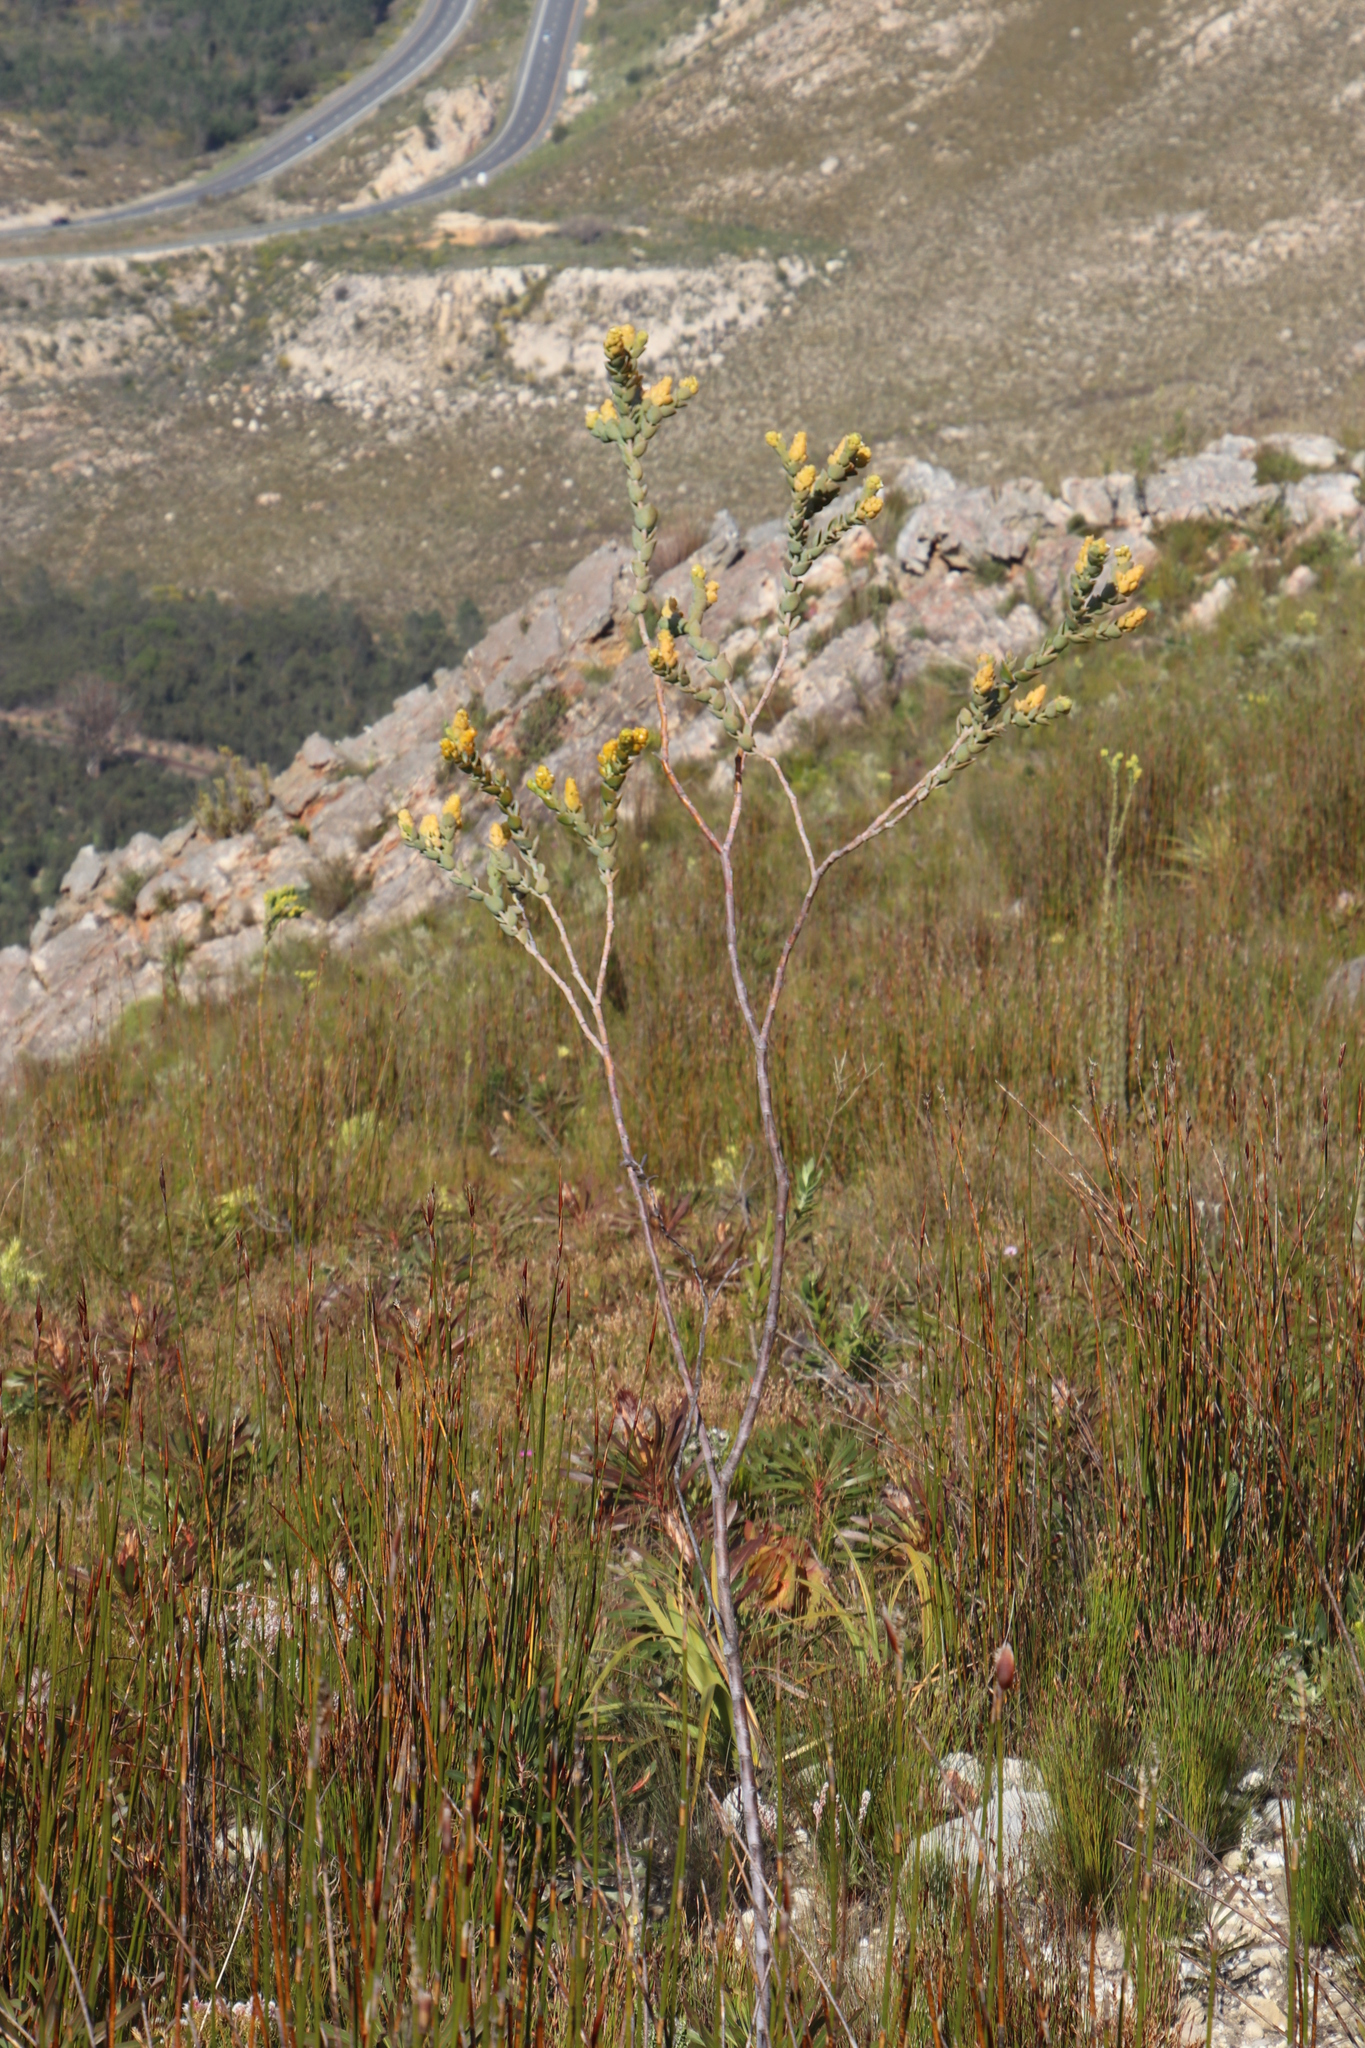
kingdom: Plantae
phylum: Tracheophyta
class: Magnoliopsida
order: Santalales
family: Thesiaceae
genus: Thesium
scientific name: Thesium euphorbioides
